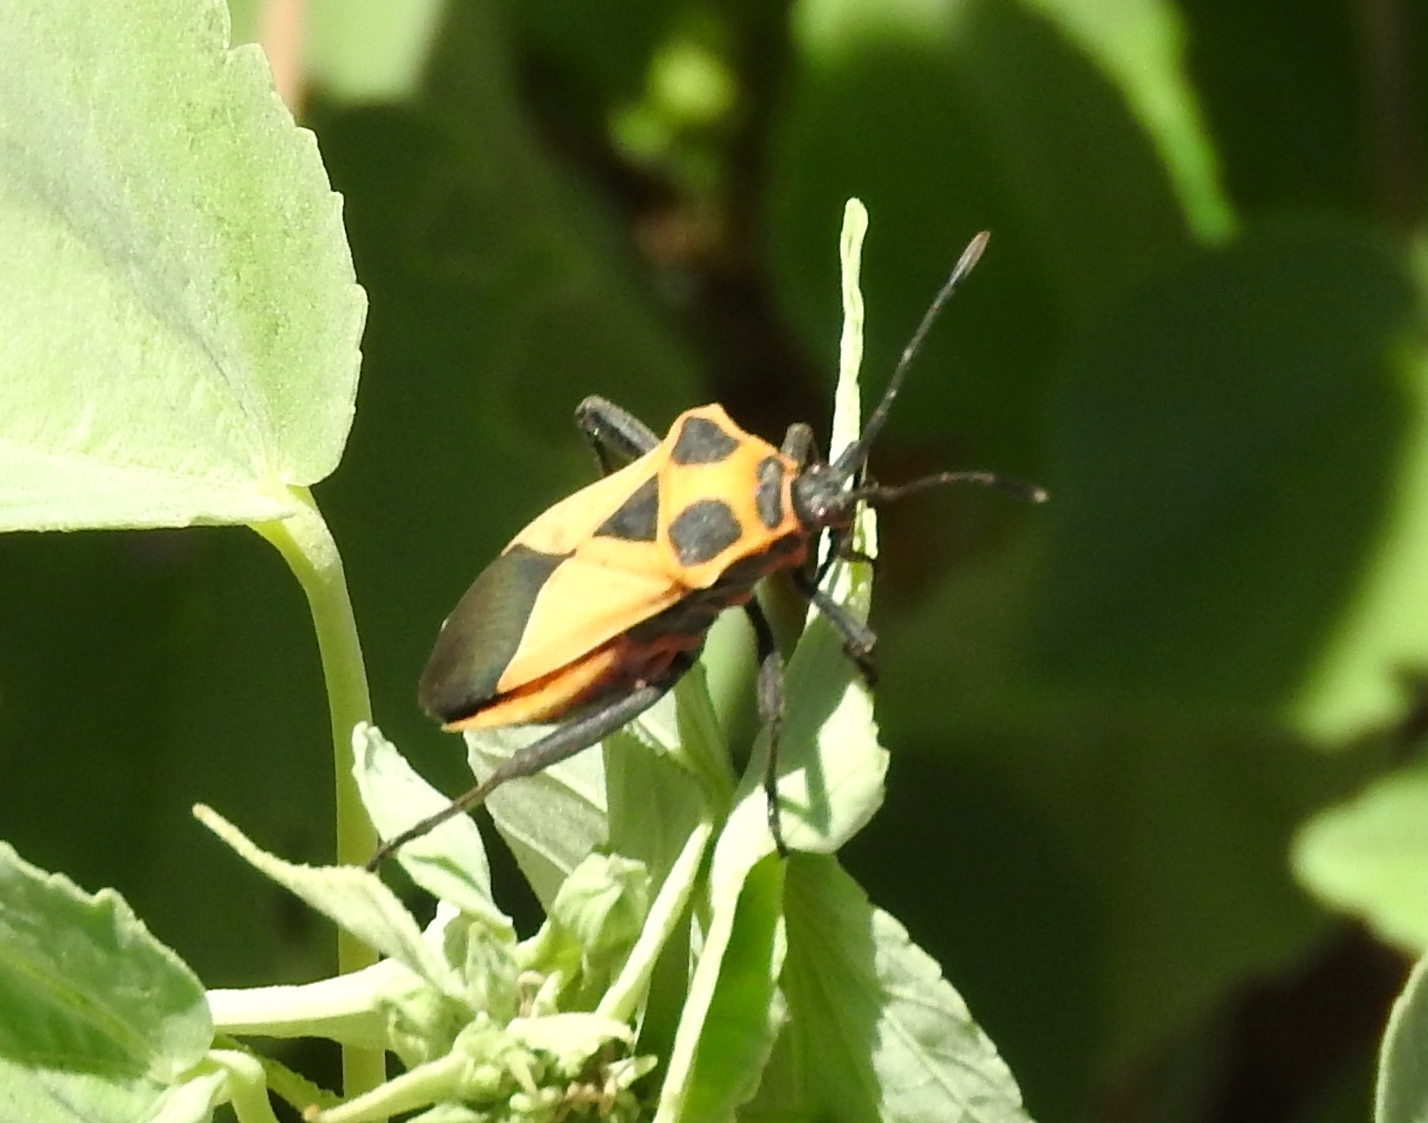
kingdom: Animalia
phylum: Arthropoda
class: Insecta
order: Hemiptera
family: Coreidae
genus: Sagotylus
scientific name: Sagotylus confluens
